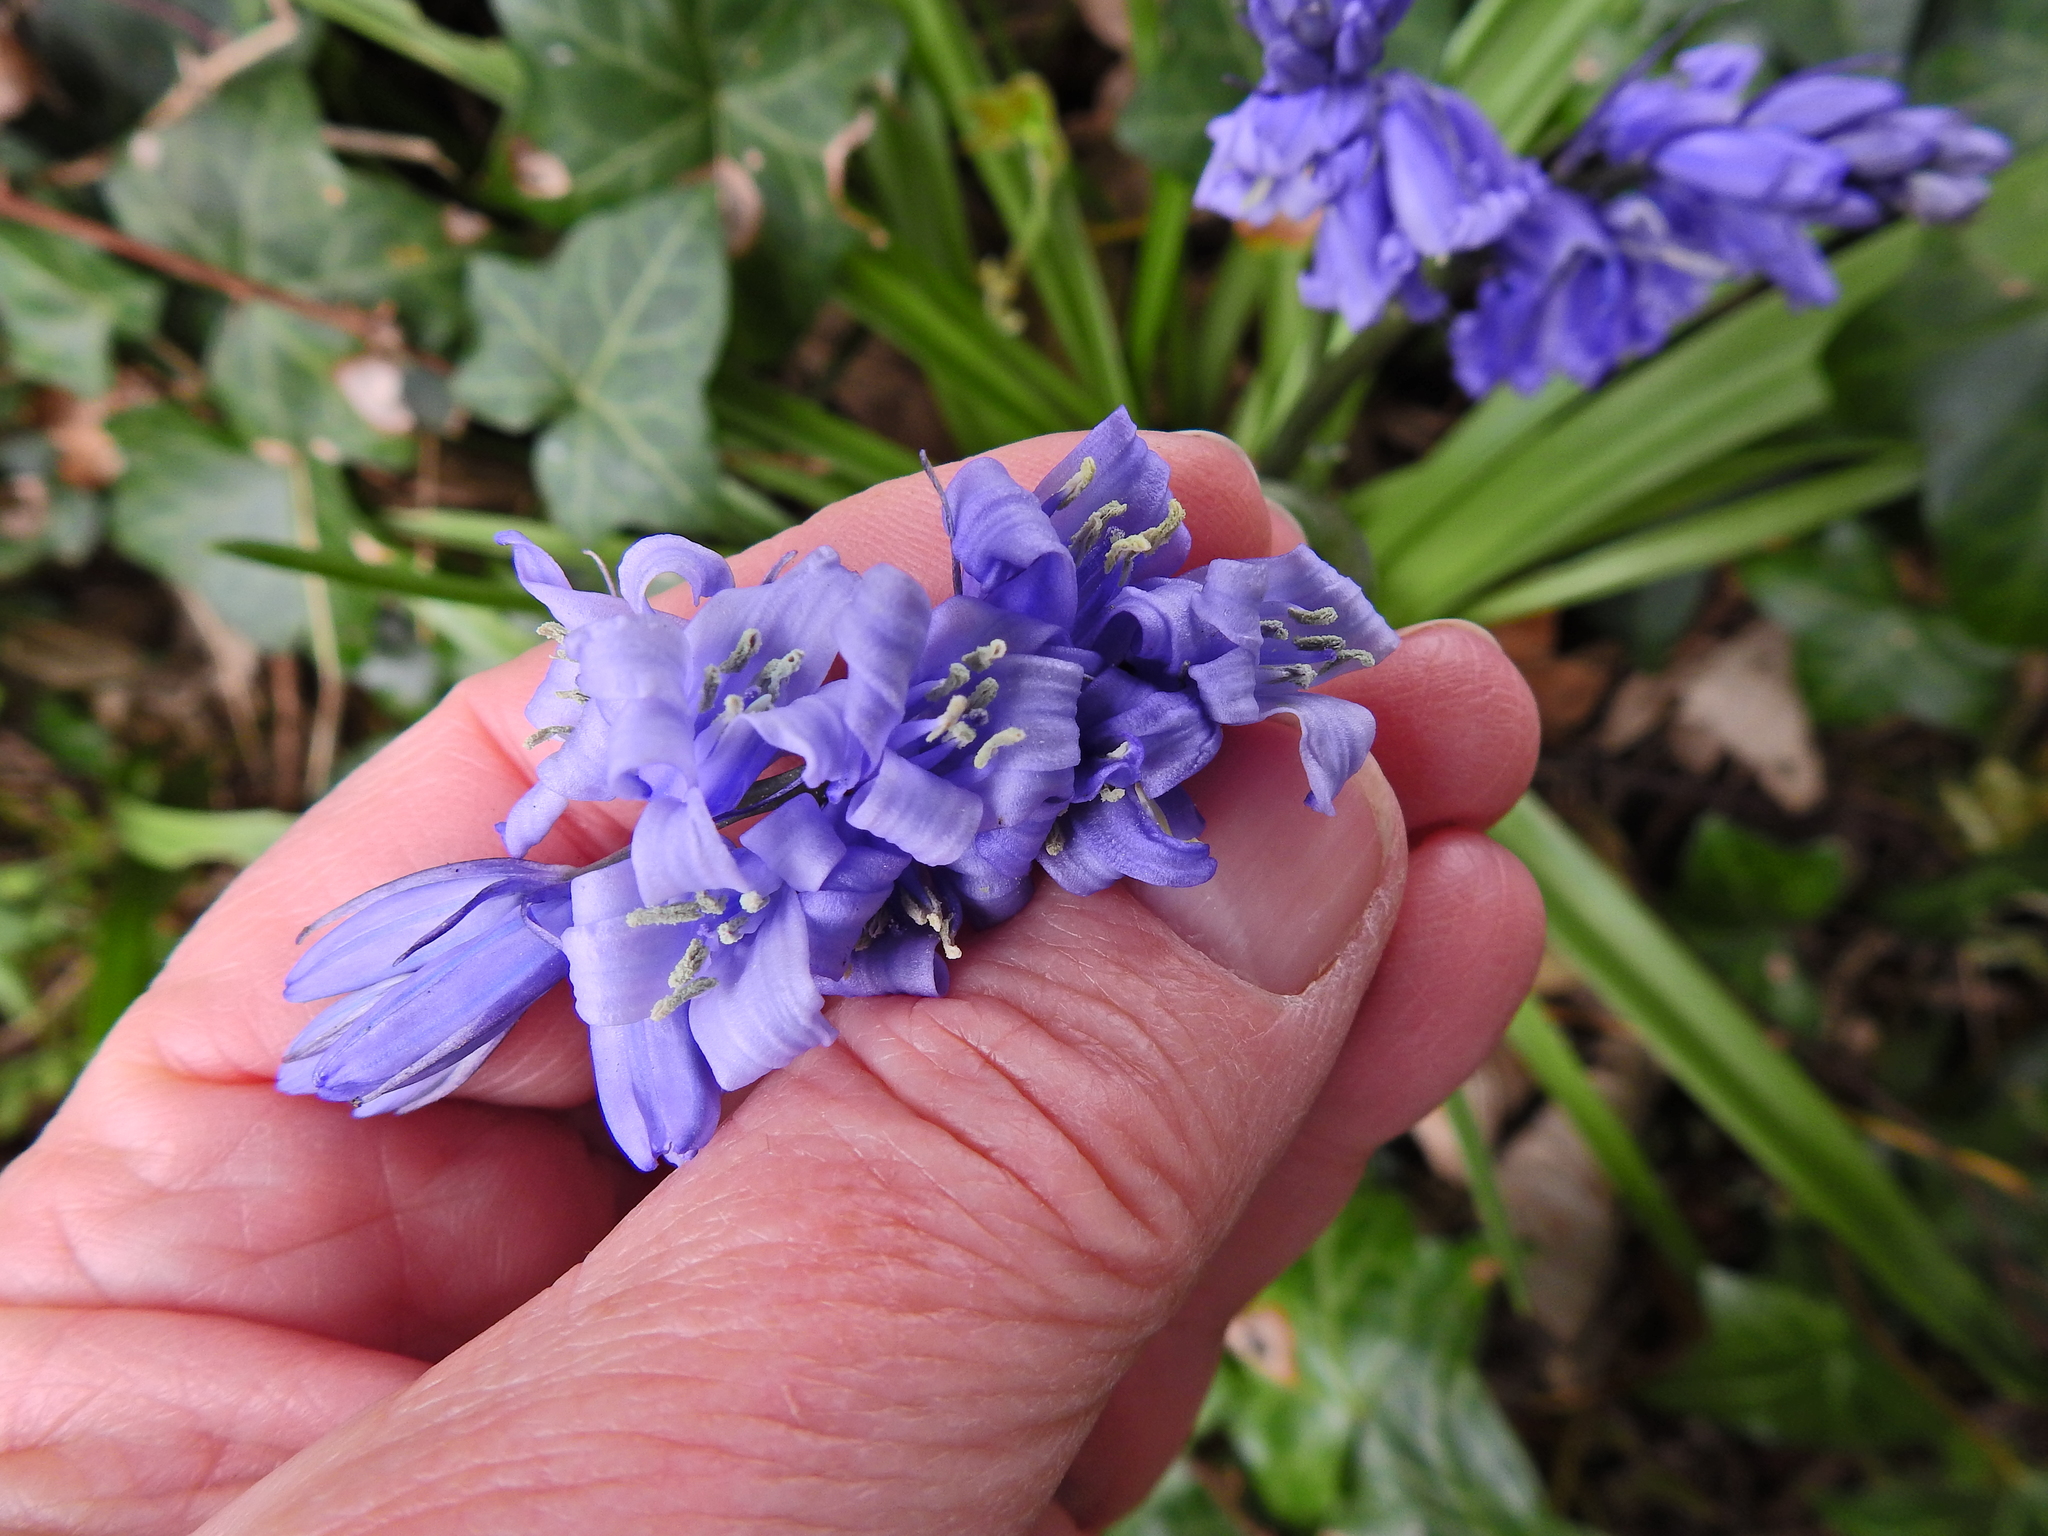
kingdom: Plantae
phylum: Tracheophyta
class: Liliopsida
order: Asparagales
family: Asparagaceae
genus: Hyacinthoides
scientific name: Hyacinthoides hispanica
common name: Spanish bluebell
